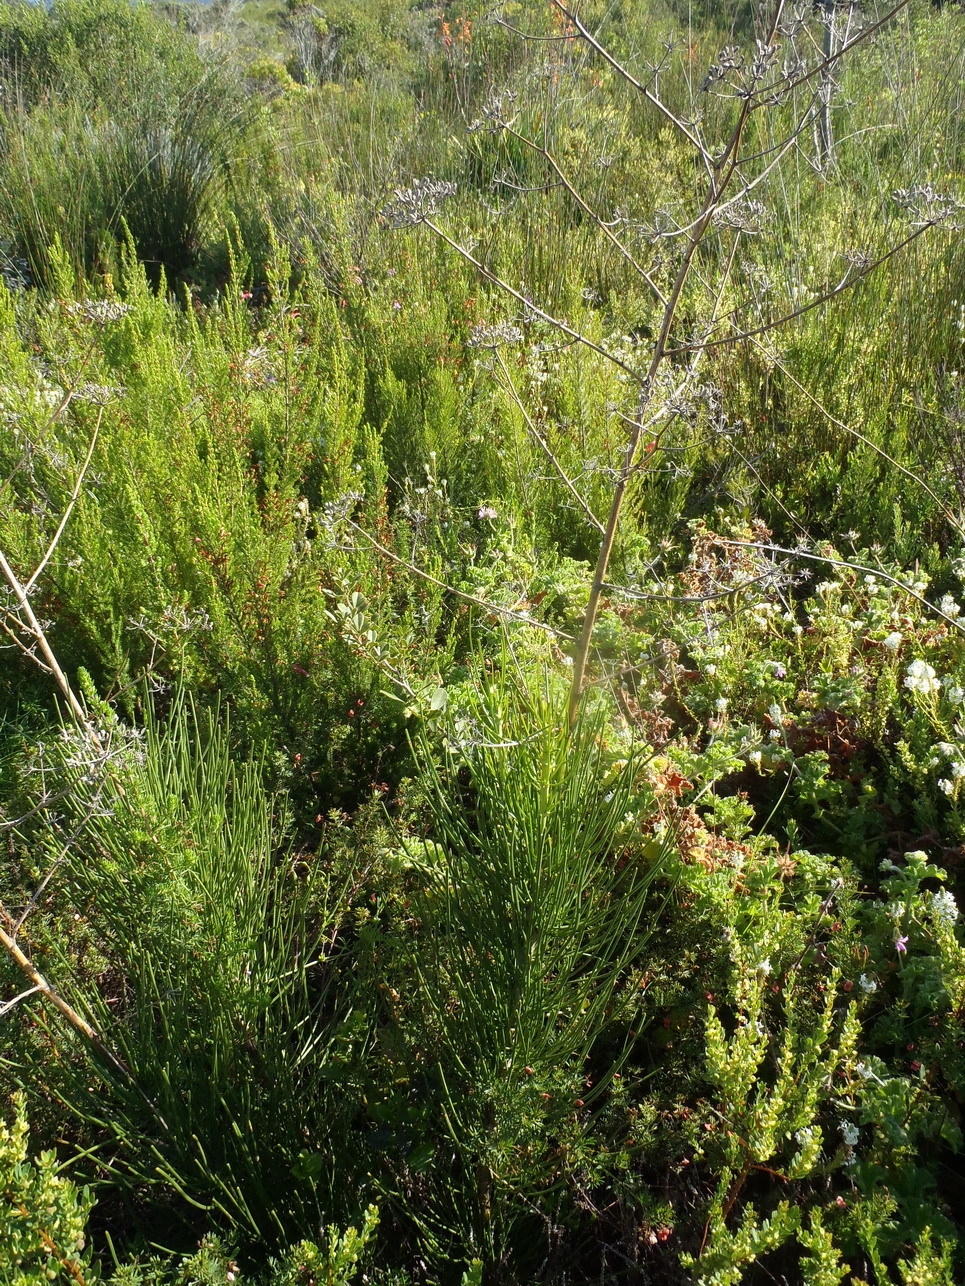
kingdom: Plantae
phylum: Tracheophyta
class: Magnoliopsida
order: Apiales
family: Apiaceae
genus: Anginon
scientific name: Anginon difforme
